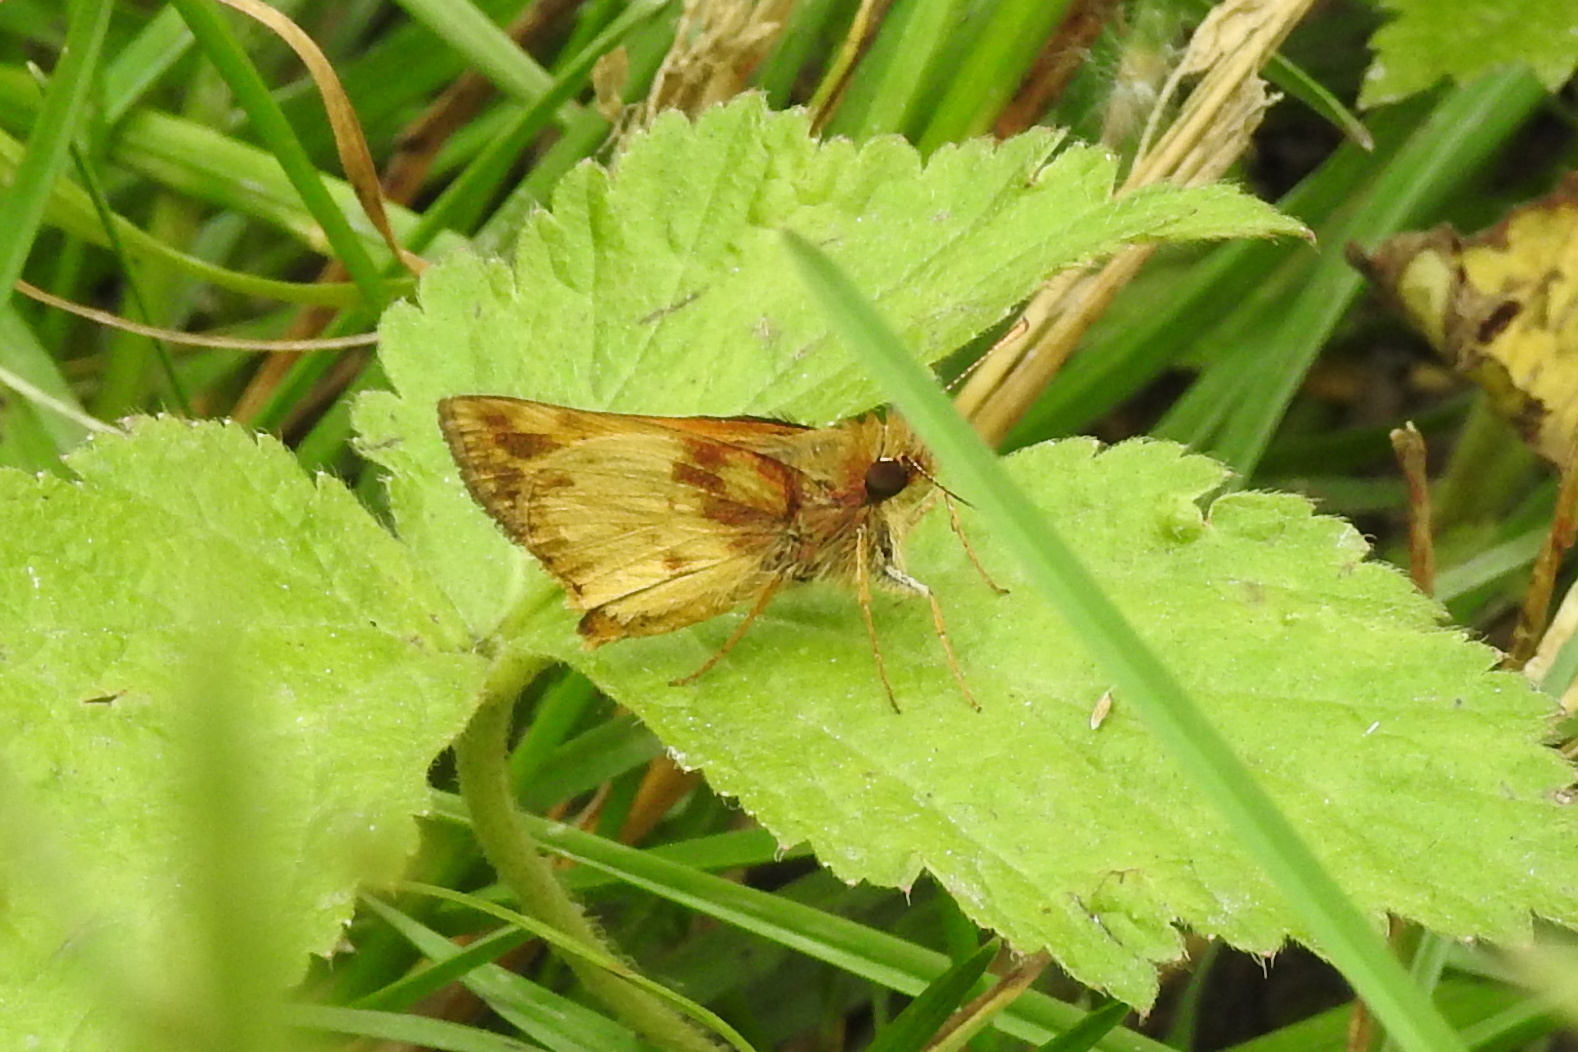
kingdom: Animalia
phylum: Arthropoda
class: Insecta
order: Lepidoptera
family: Hesperiidae
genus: Lon
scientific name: Lon zabulon
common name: Zabulon skipper
